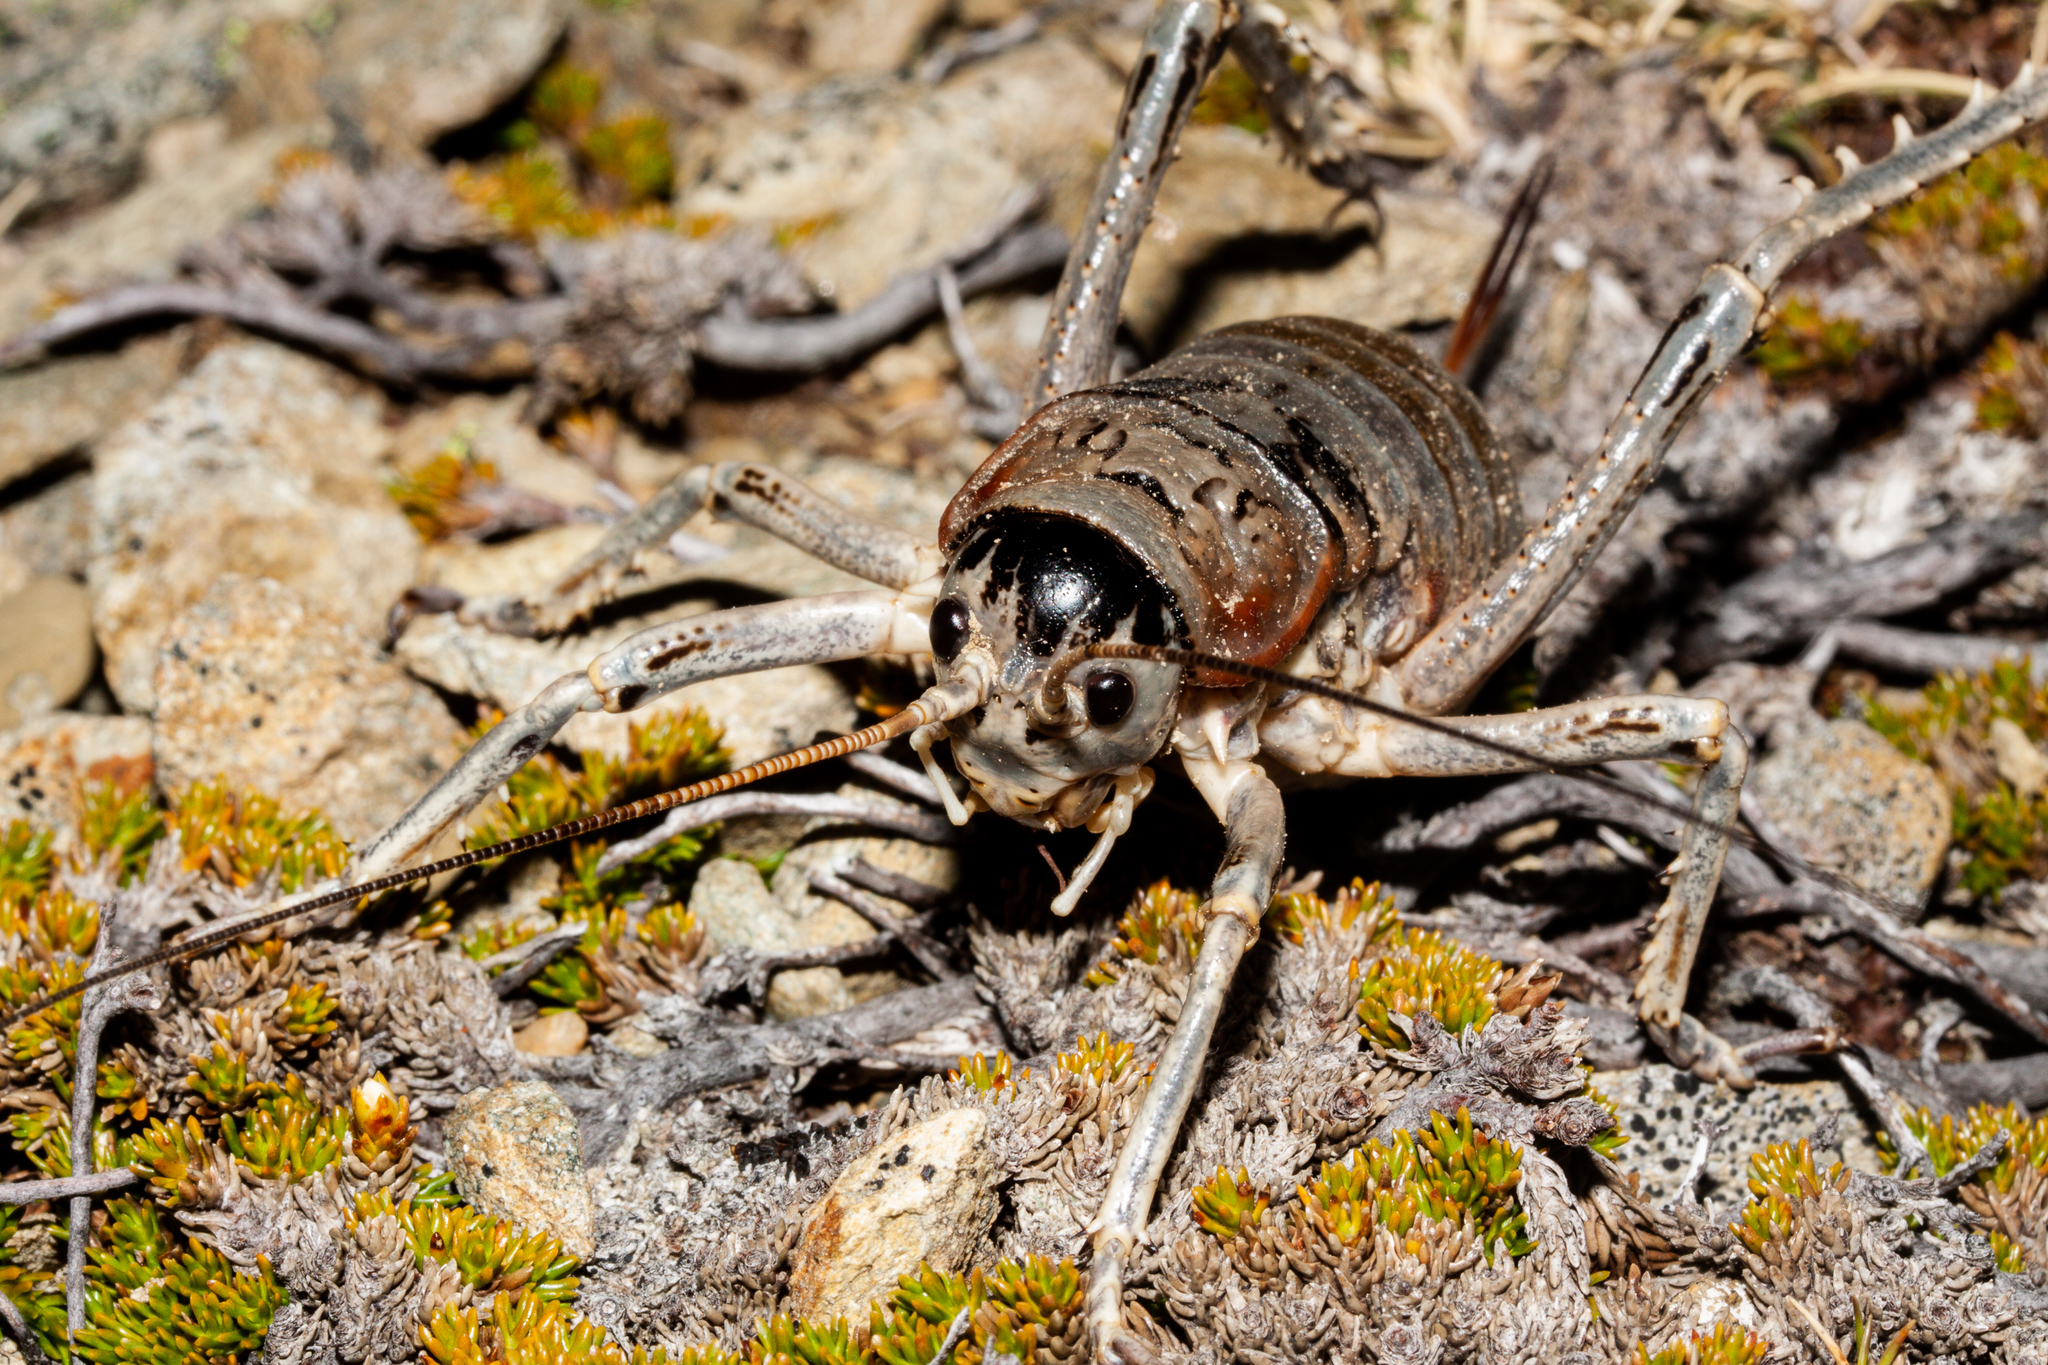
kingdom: Animalia
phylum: Arthropoda
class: Insecta
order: Orthoptera
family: Anostostomatidae
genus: Deinacrida
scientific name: Deinacrida connectens
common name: Scree weta
